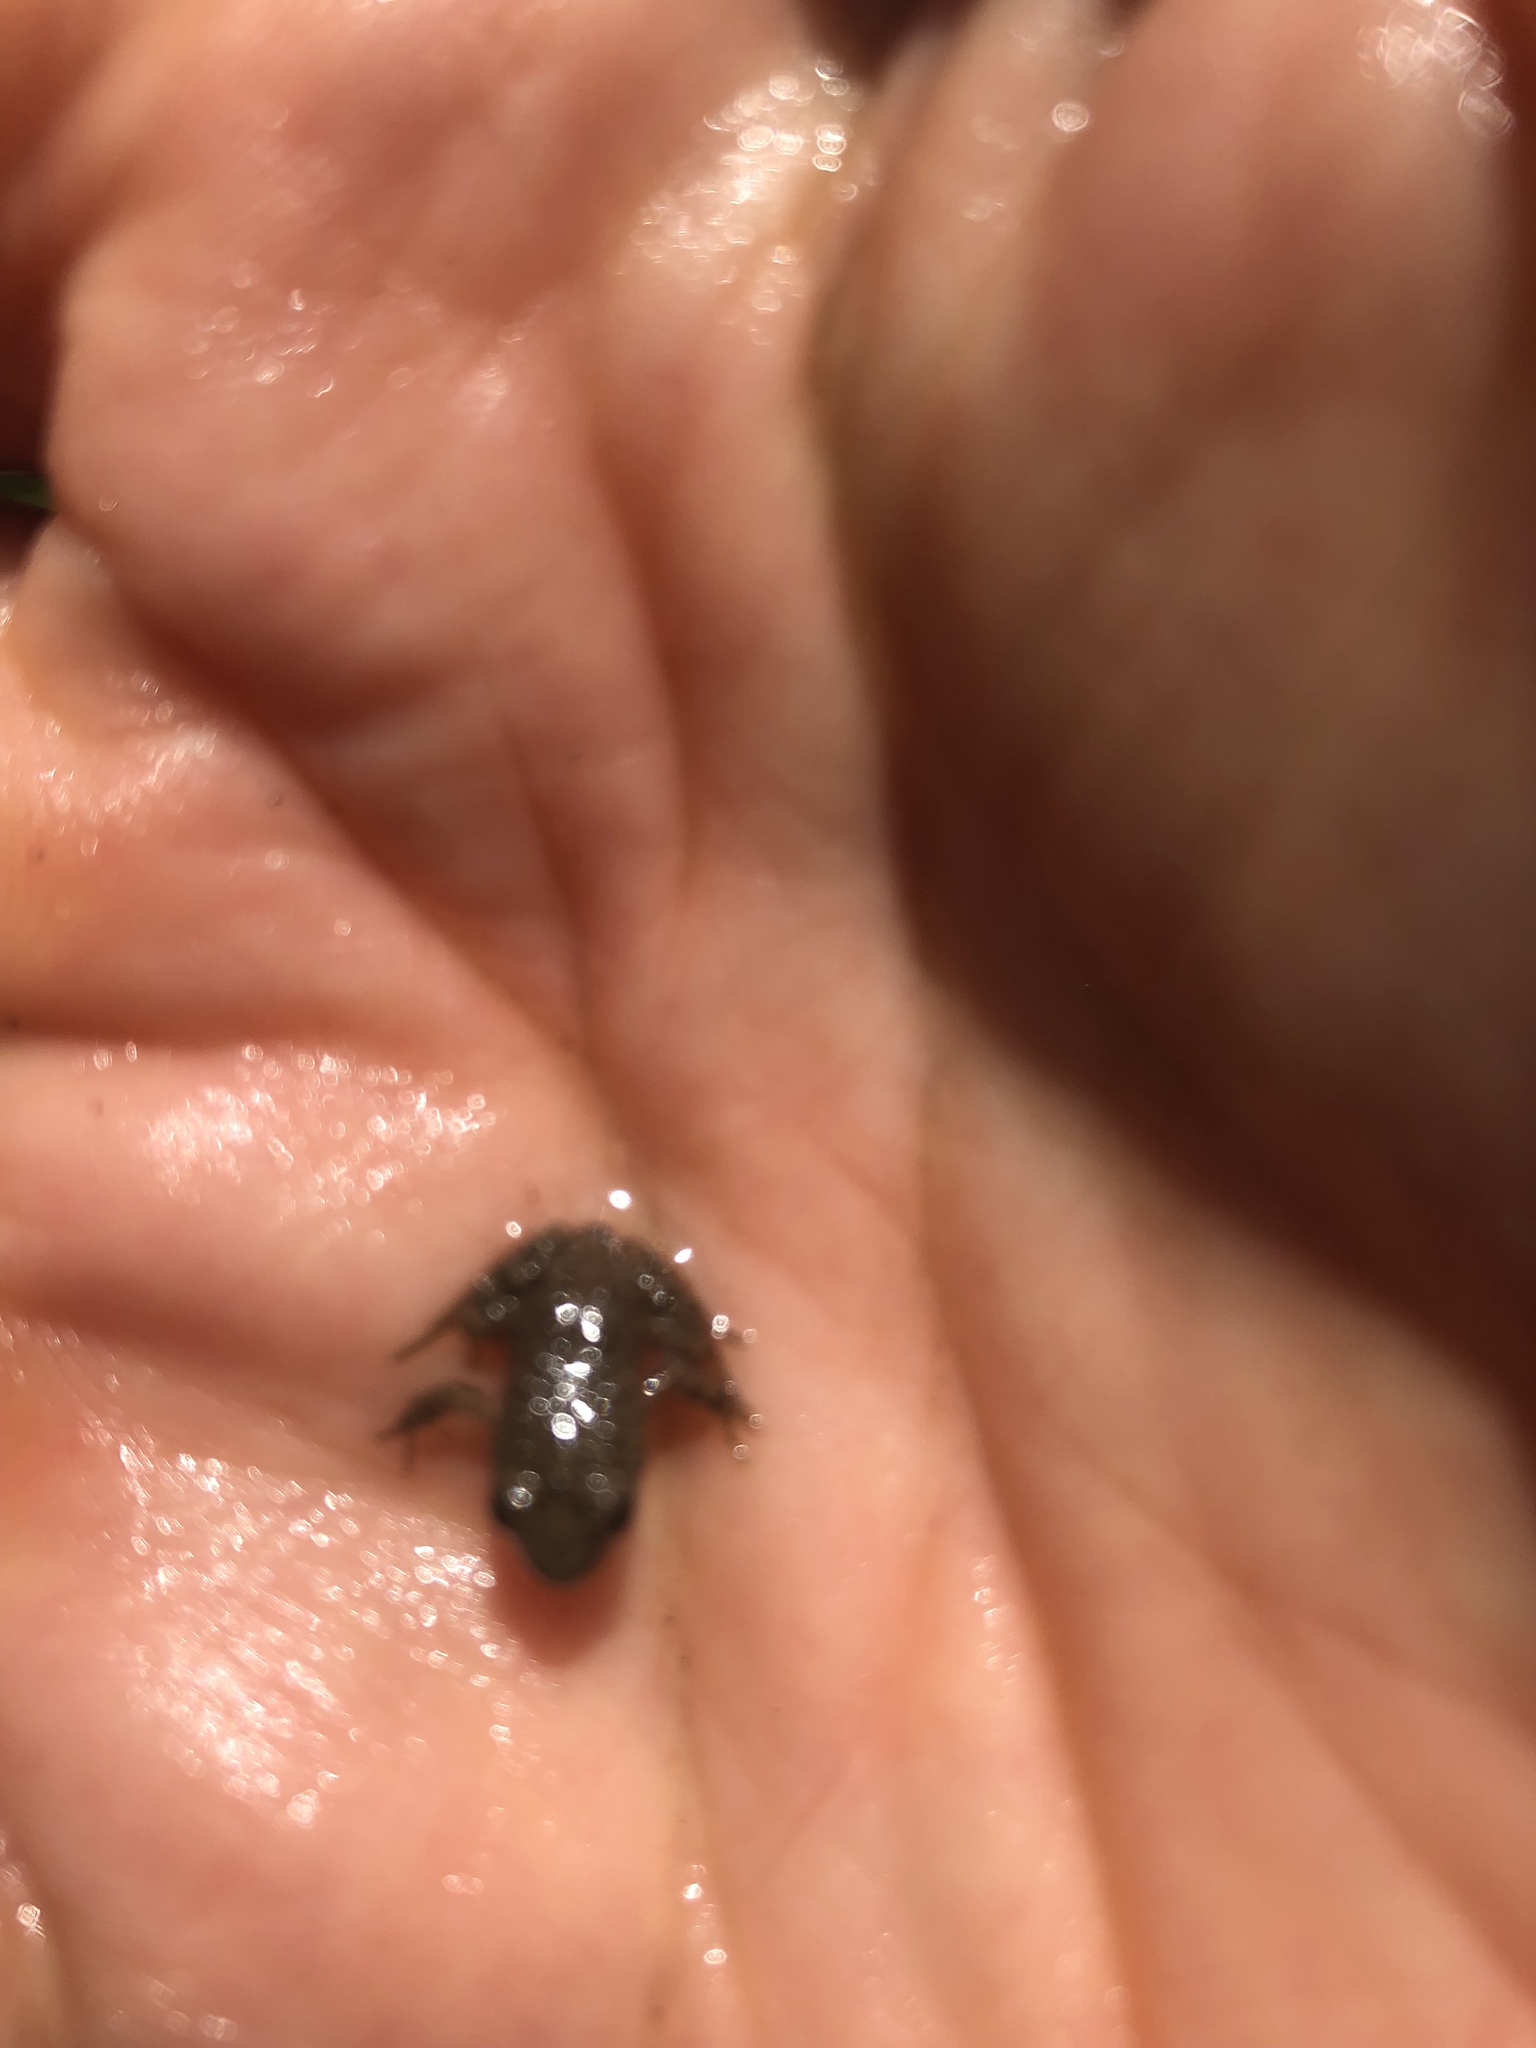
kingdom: Animalia
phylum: Chordata
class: Amphibia
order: Anura
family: Leptodactylidae
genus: Pleurodema
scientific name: Pleurodema thaul
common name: Chile four-eyed frog
